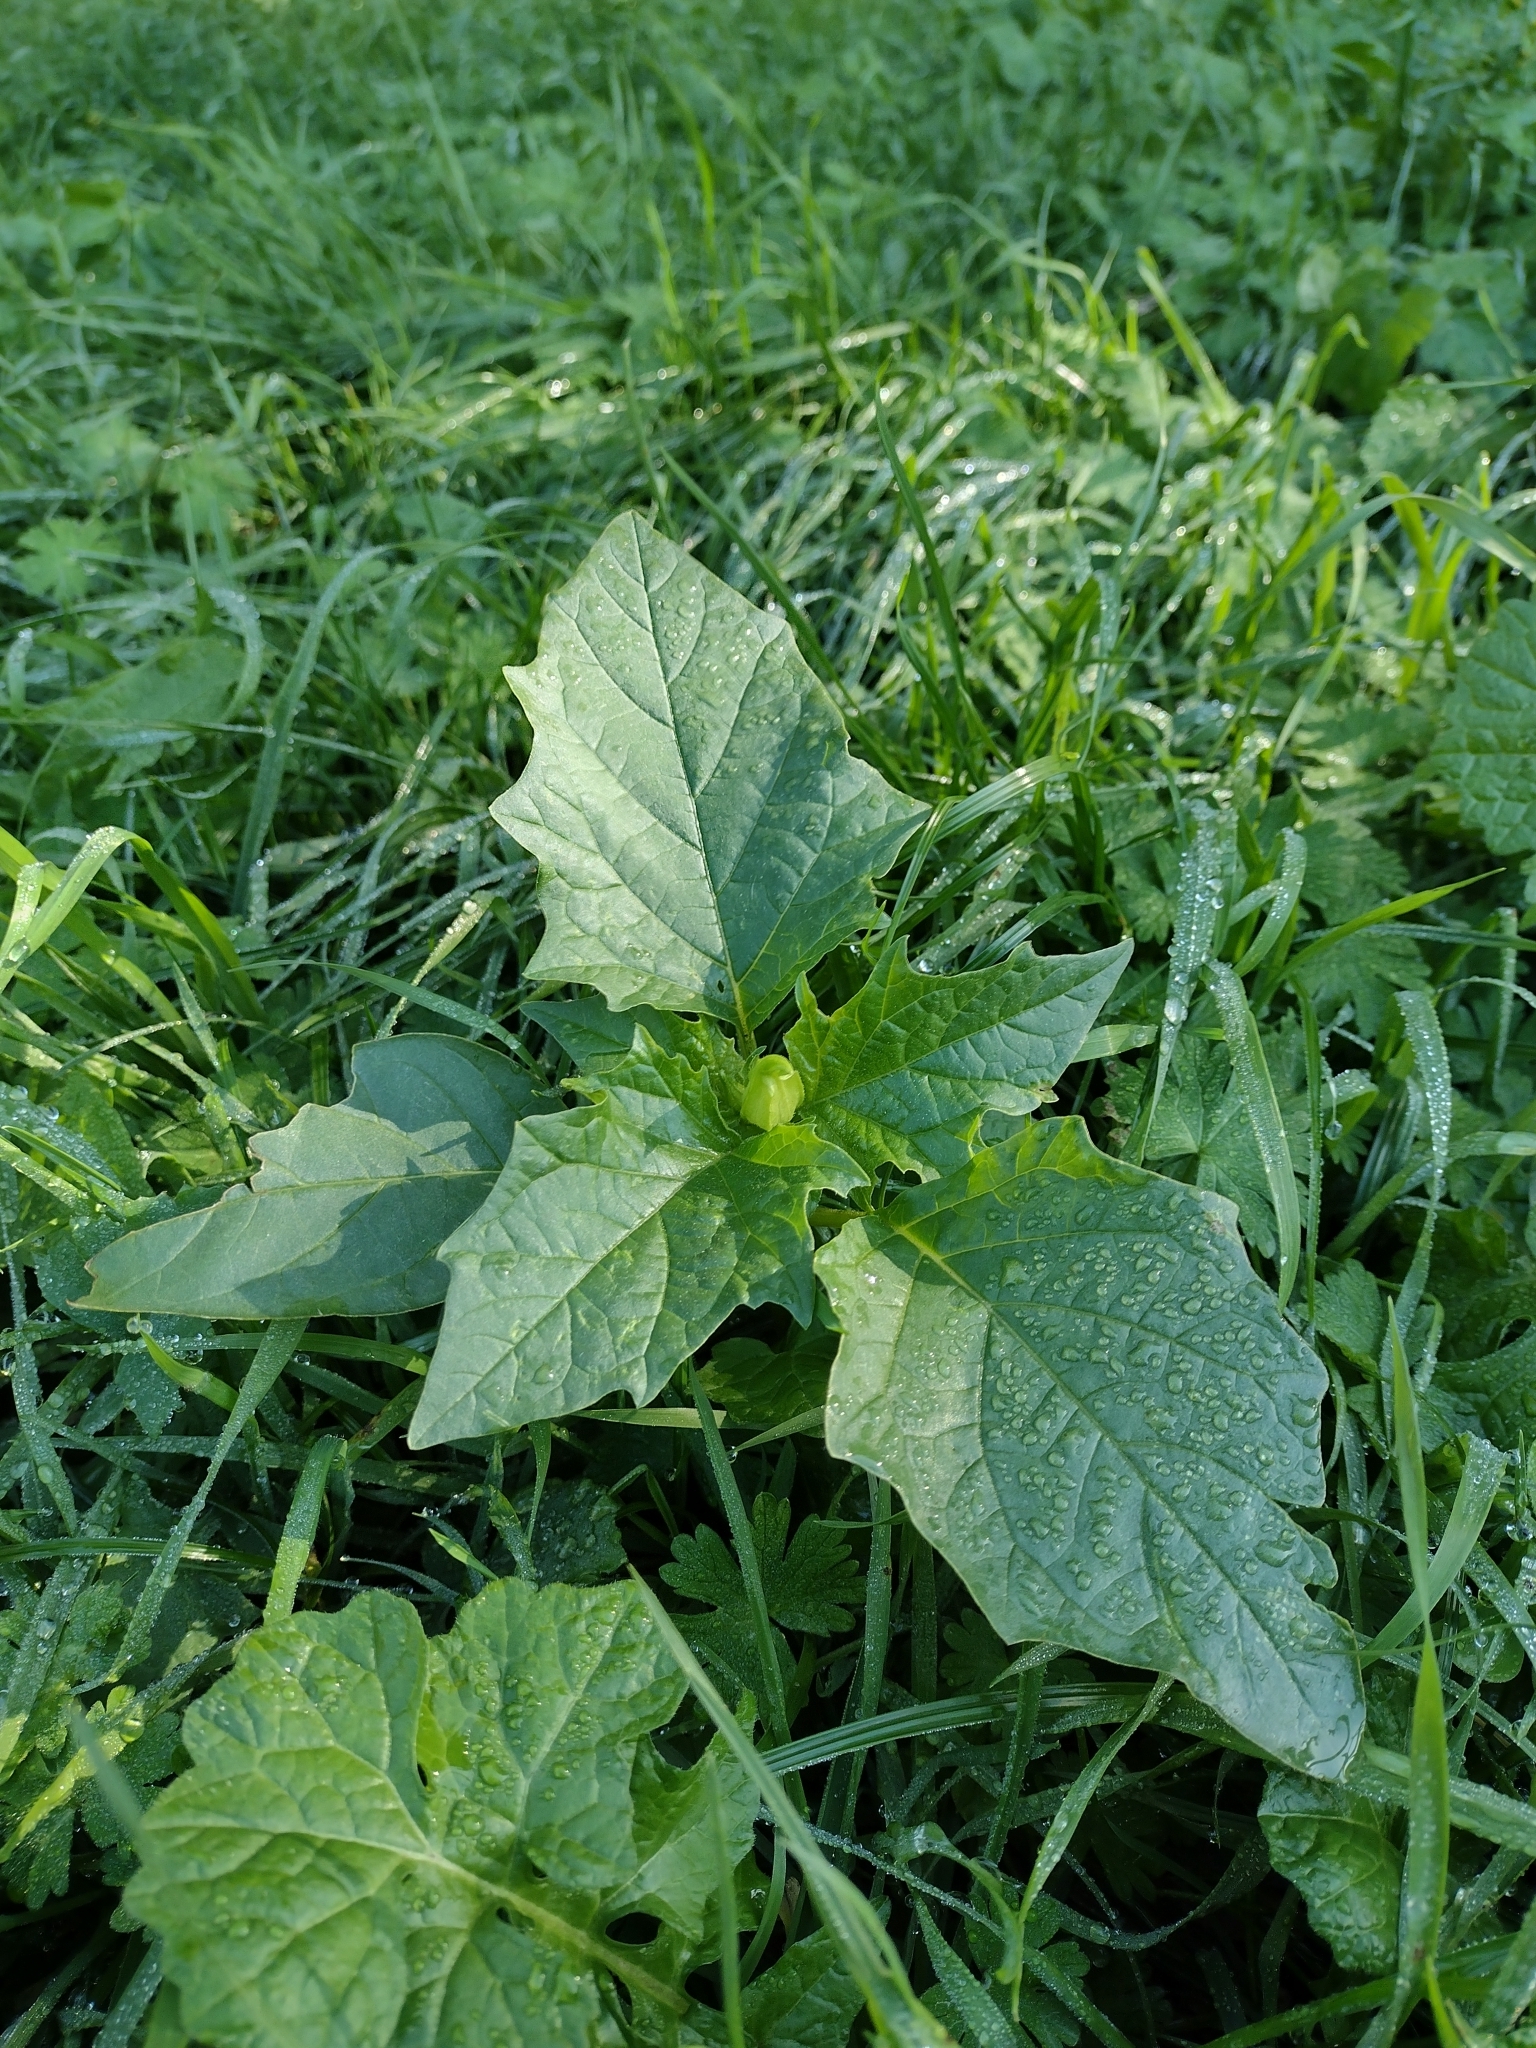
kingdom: Plantae
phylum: Tracheophyta
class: Magnoliopsida
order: Solanales
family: Solanaceae
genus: Datura
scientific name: Datura stramonium
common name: Thorn-apple
